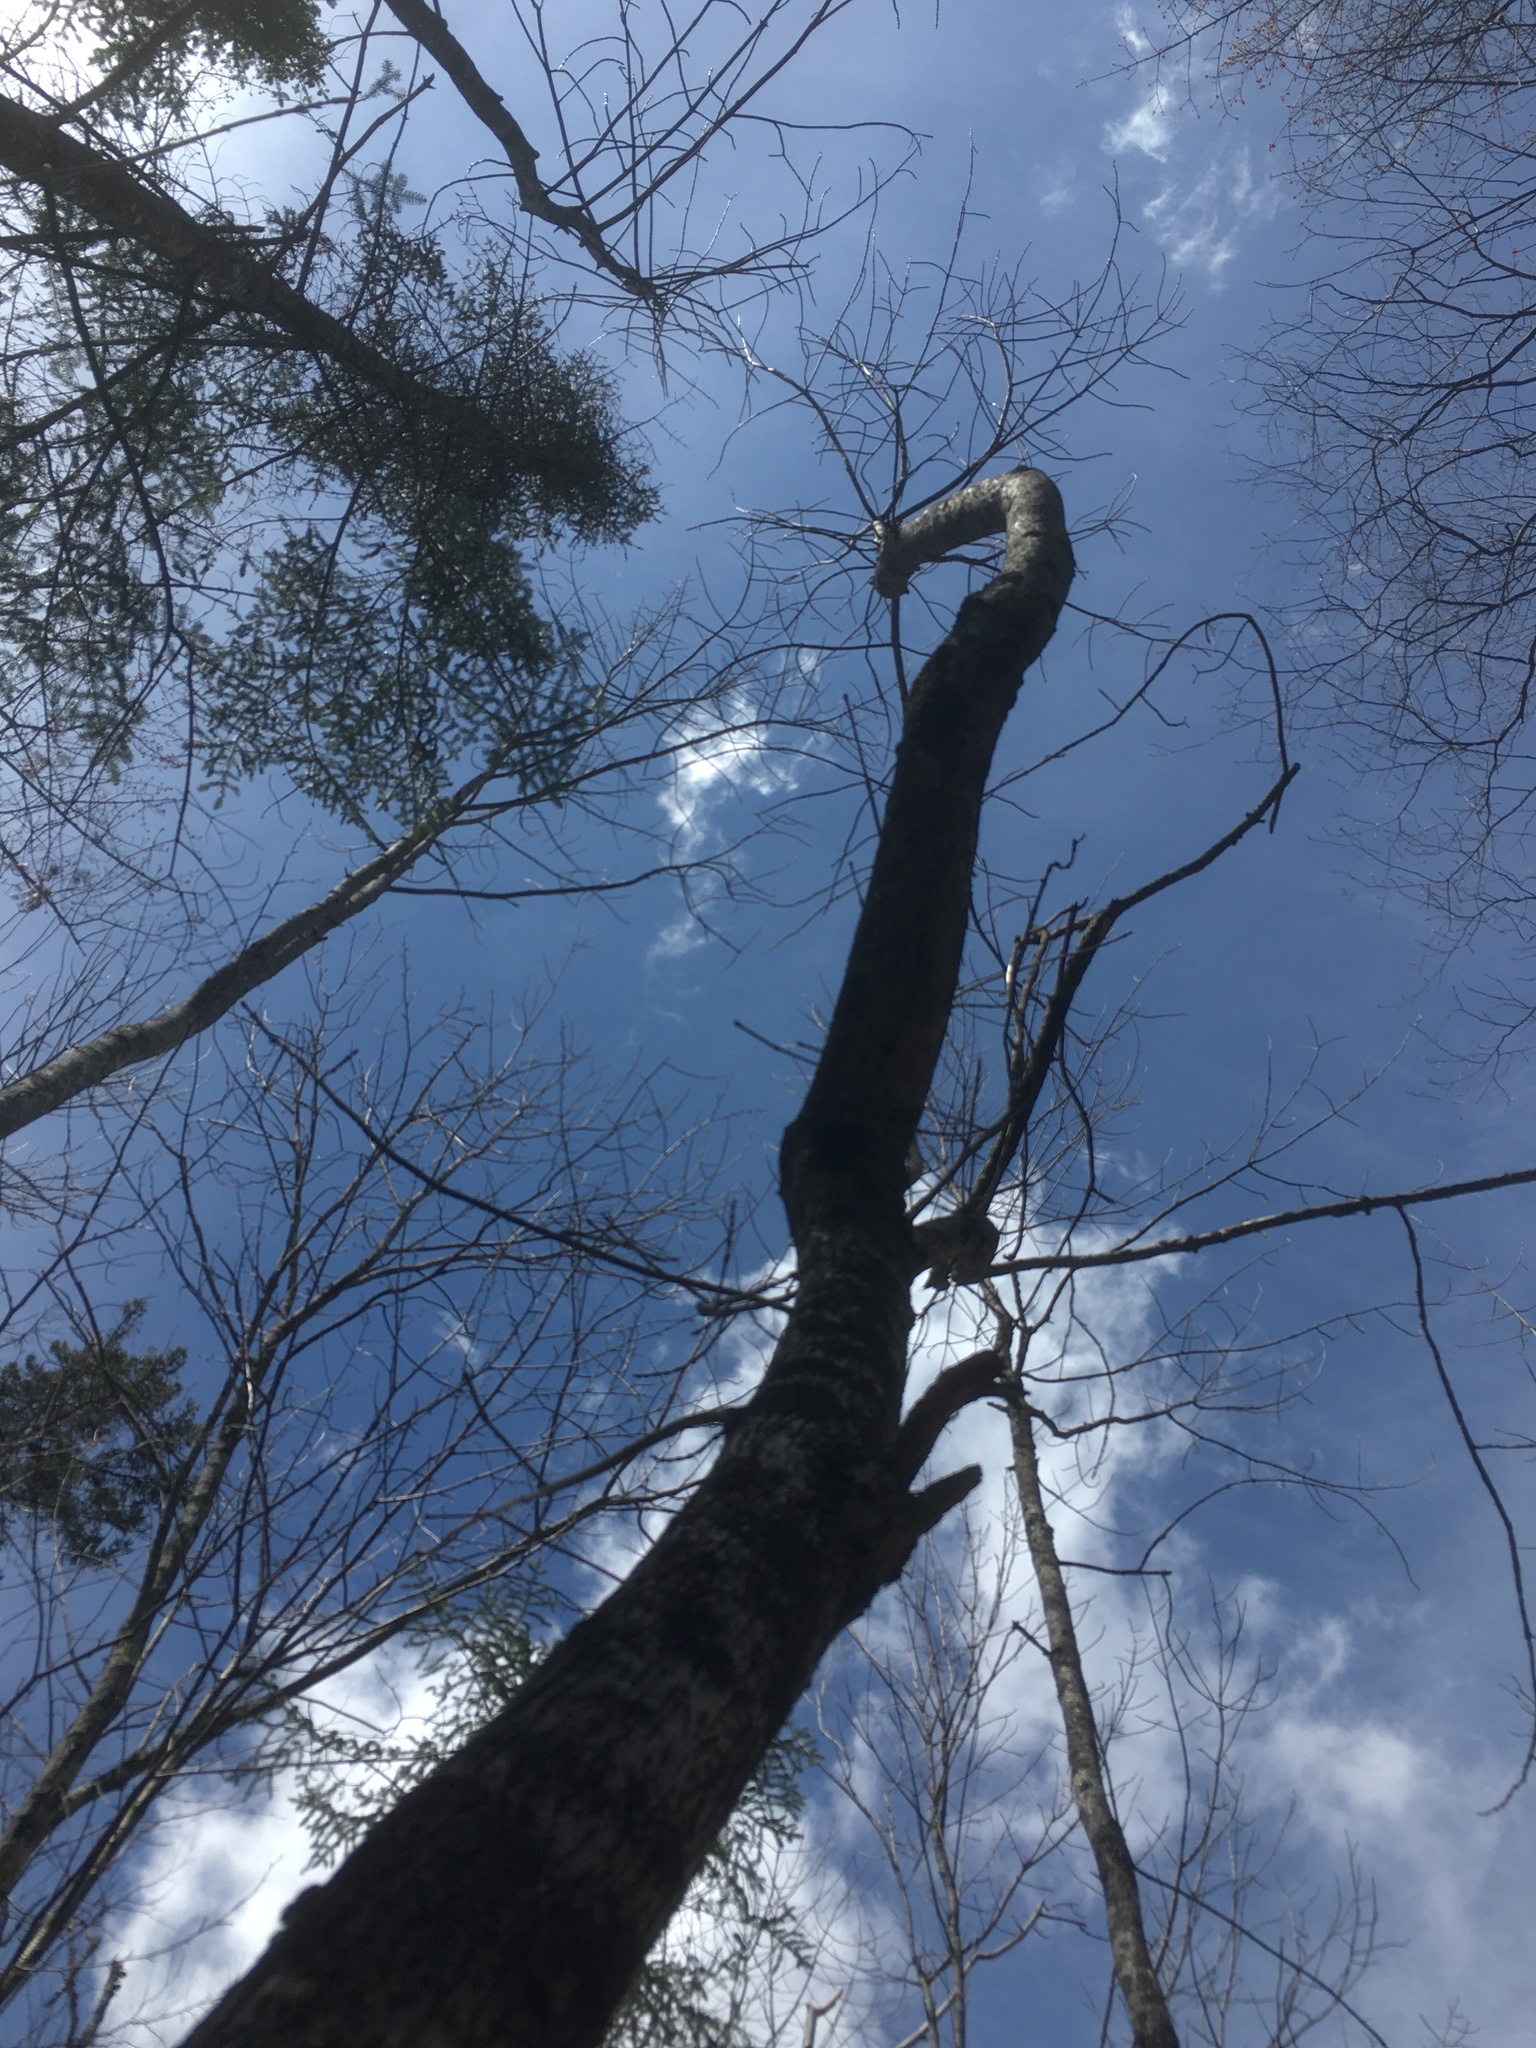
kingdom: Plantae
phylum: Tracheophyta
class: Magnoliopsida
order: Lamiales
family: Oleaceae
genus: Fraxinus
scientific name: Fraxinus
